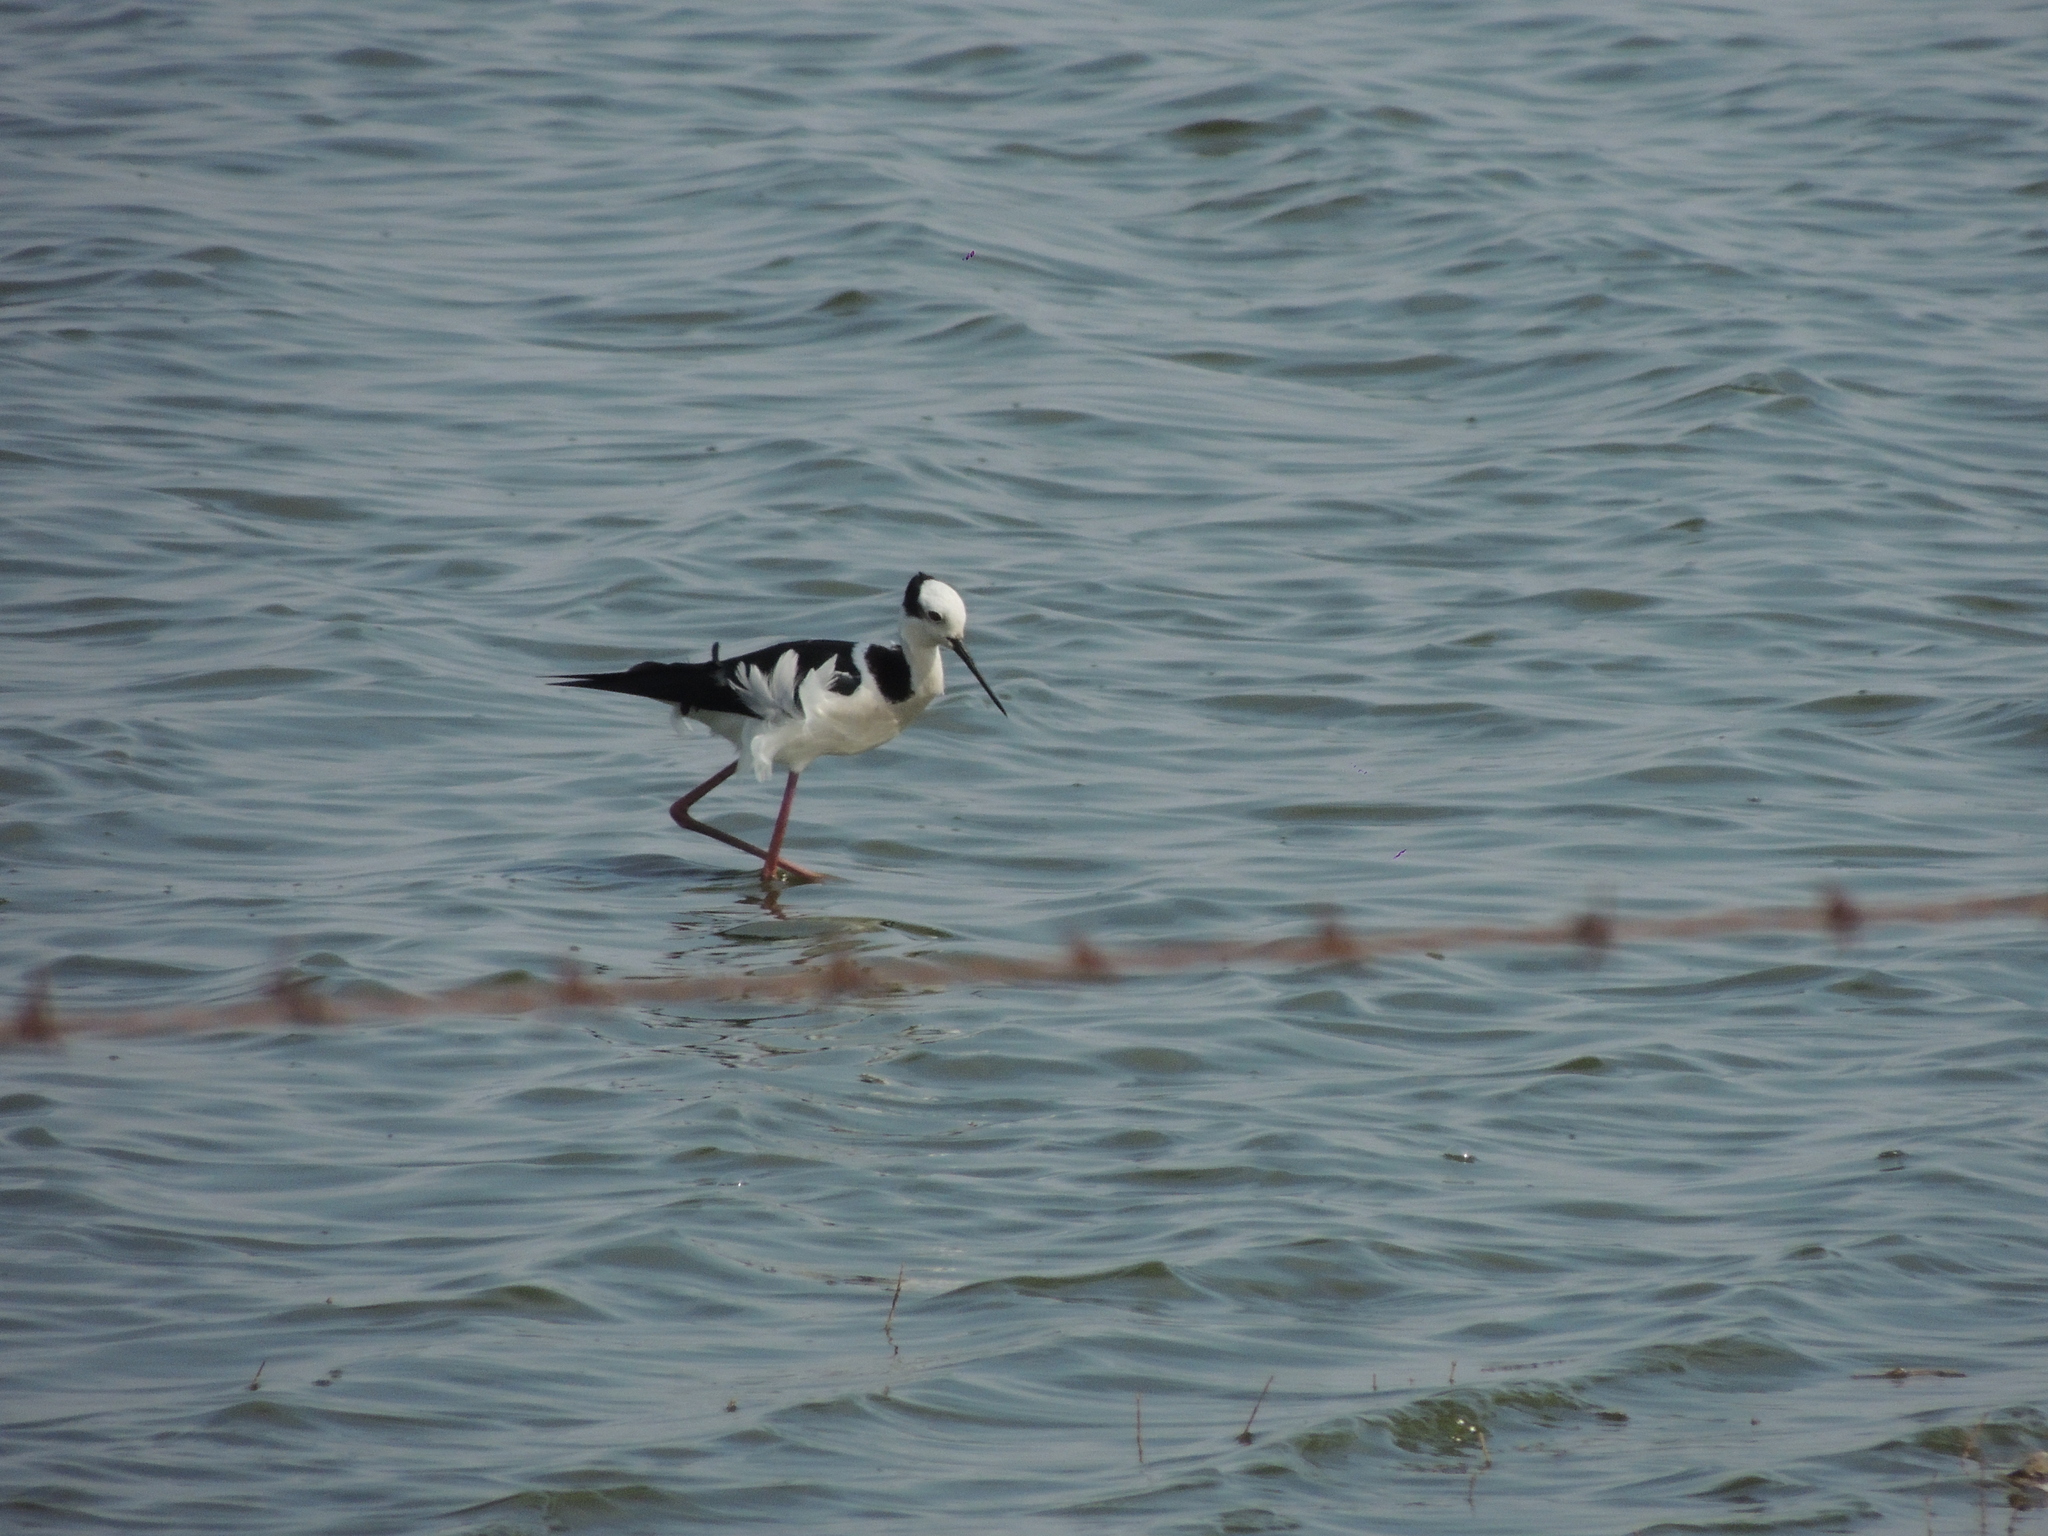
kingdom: Animalia
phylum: Chordata
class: Aves
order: Charadriiformes
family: Recurvirostridae
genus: Himantopus
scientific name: Himantopus mexicanus
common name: Black-necked stilt
